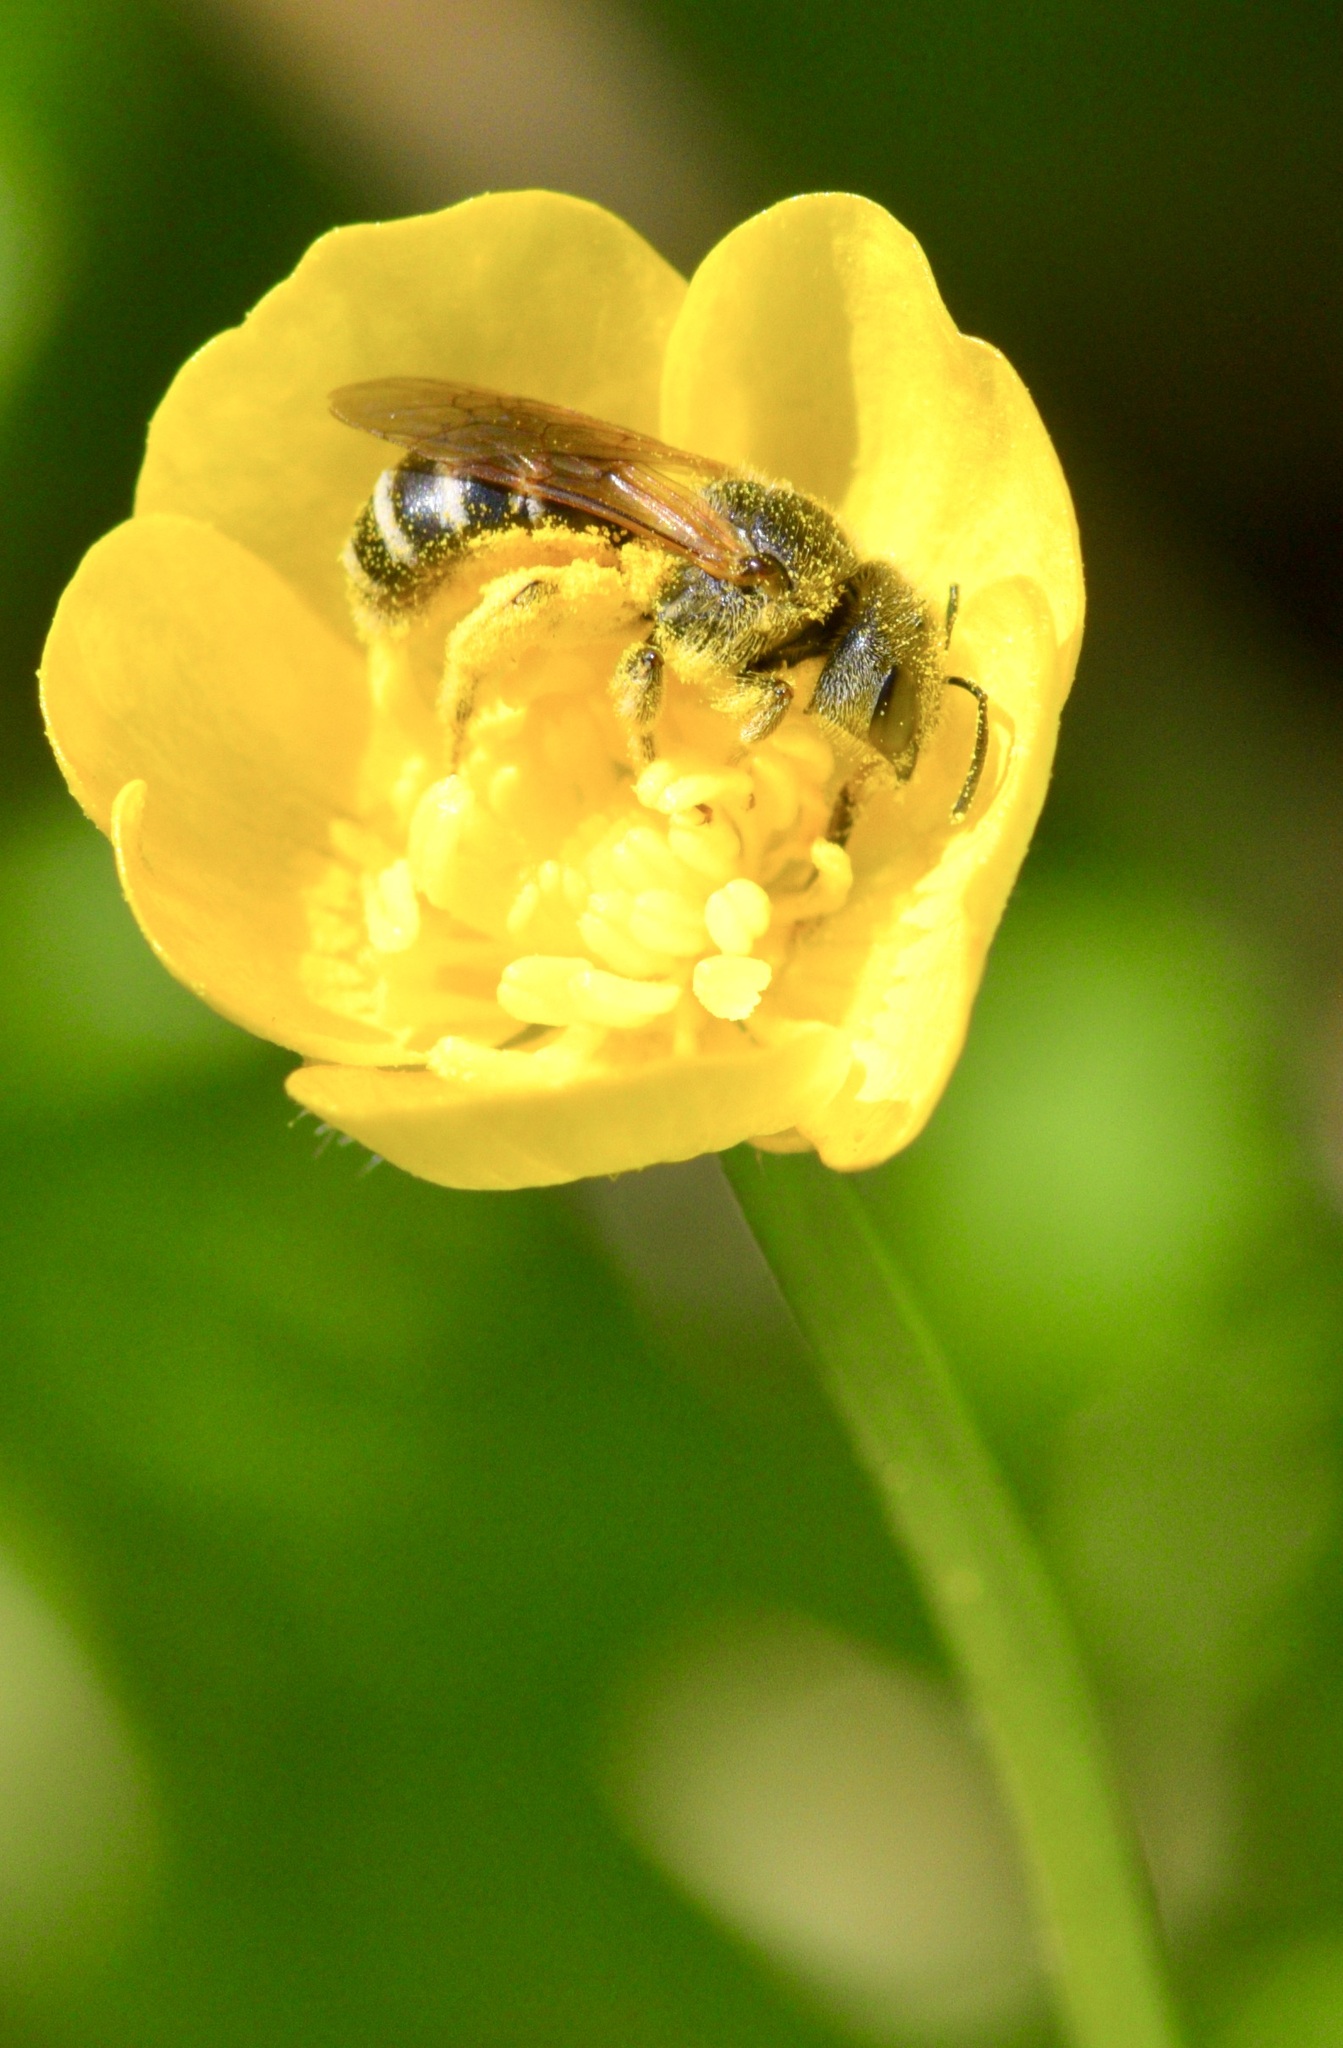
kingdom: Animalia
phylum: Arthropoda
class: Insecta
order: Hymenoptera
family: Halictidae
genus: Halictus
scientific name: Halictus ligatus
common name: Ligated furrow bee
